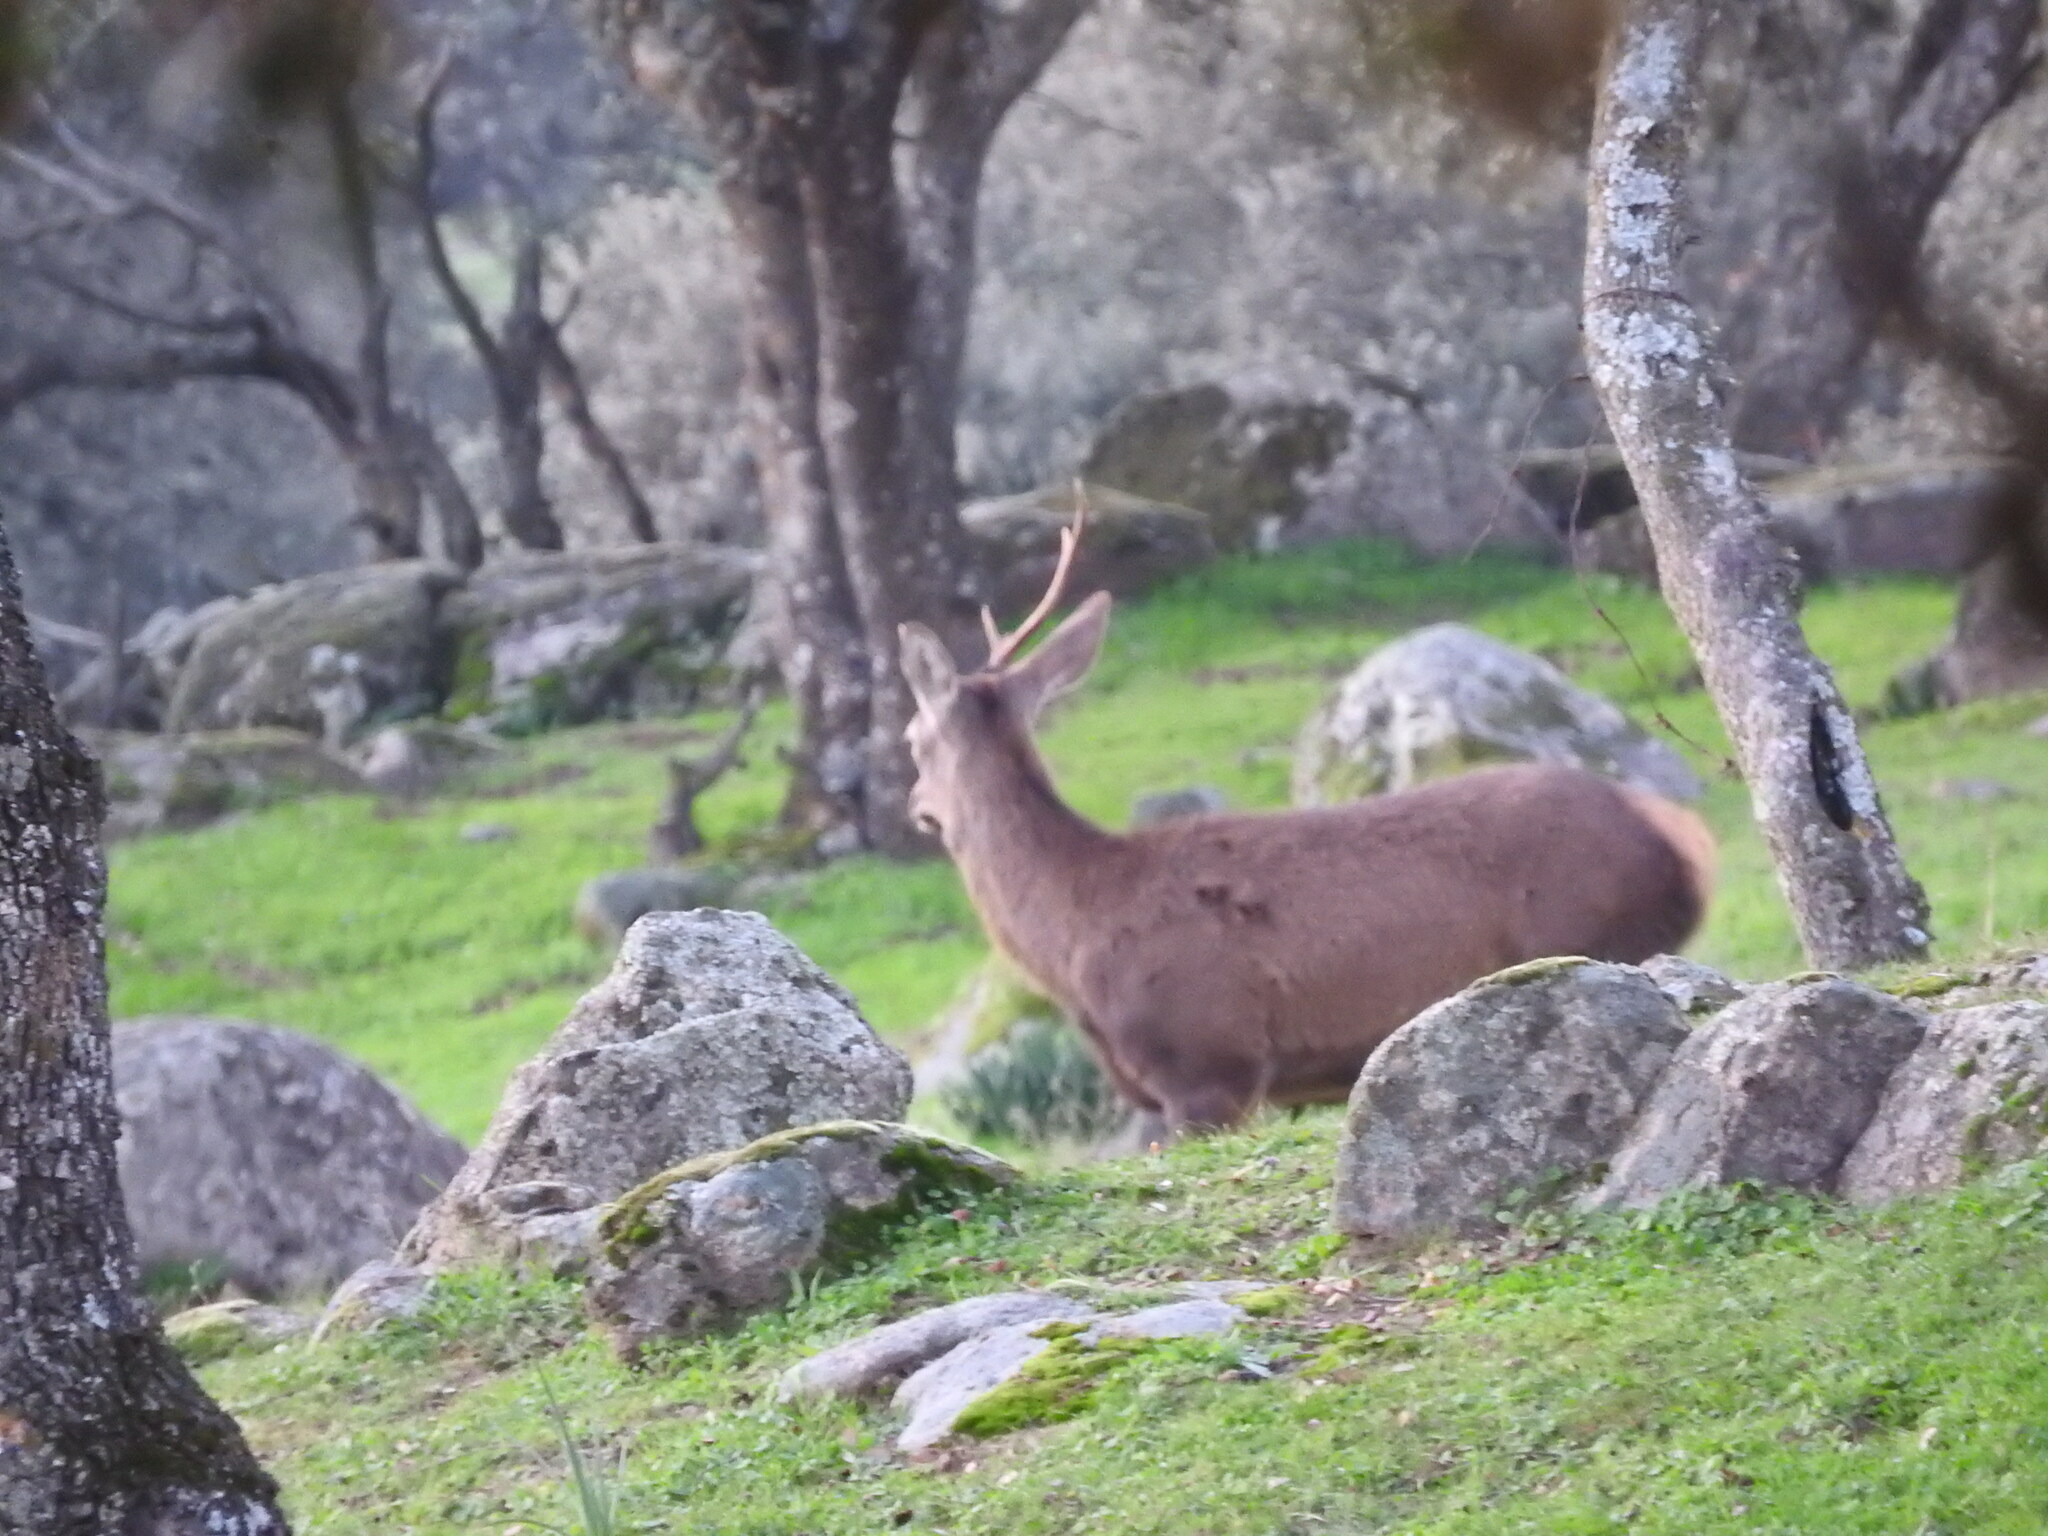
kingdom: Animalia
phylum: Chordata
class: Mammalia
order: Artiodactyla
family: Cervidae
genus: Cervus
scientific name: Cervus elaphus
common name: Red deer
